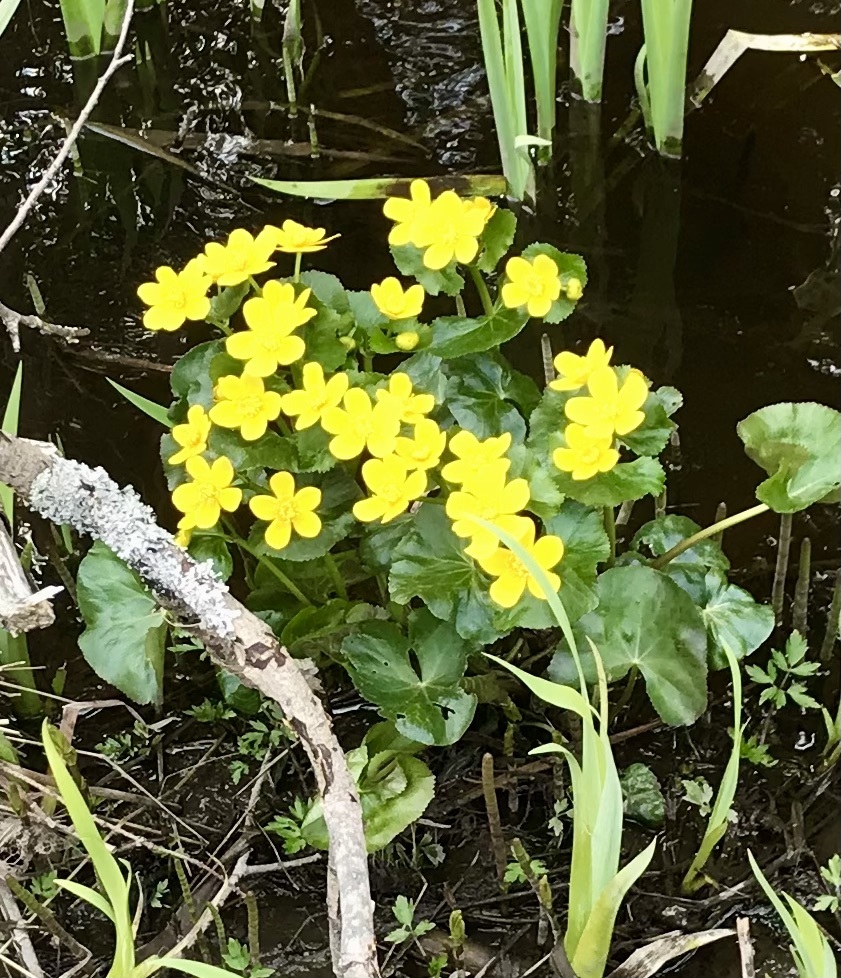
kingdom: Plantae
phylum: Tracheophyta
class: Magnoliopsida
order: Ranunculales
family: Ranunculaceae
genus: Caltha
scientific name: Caltha palustris
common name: Marsh marigold
